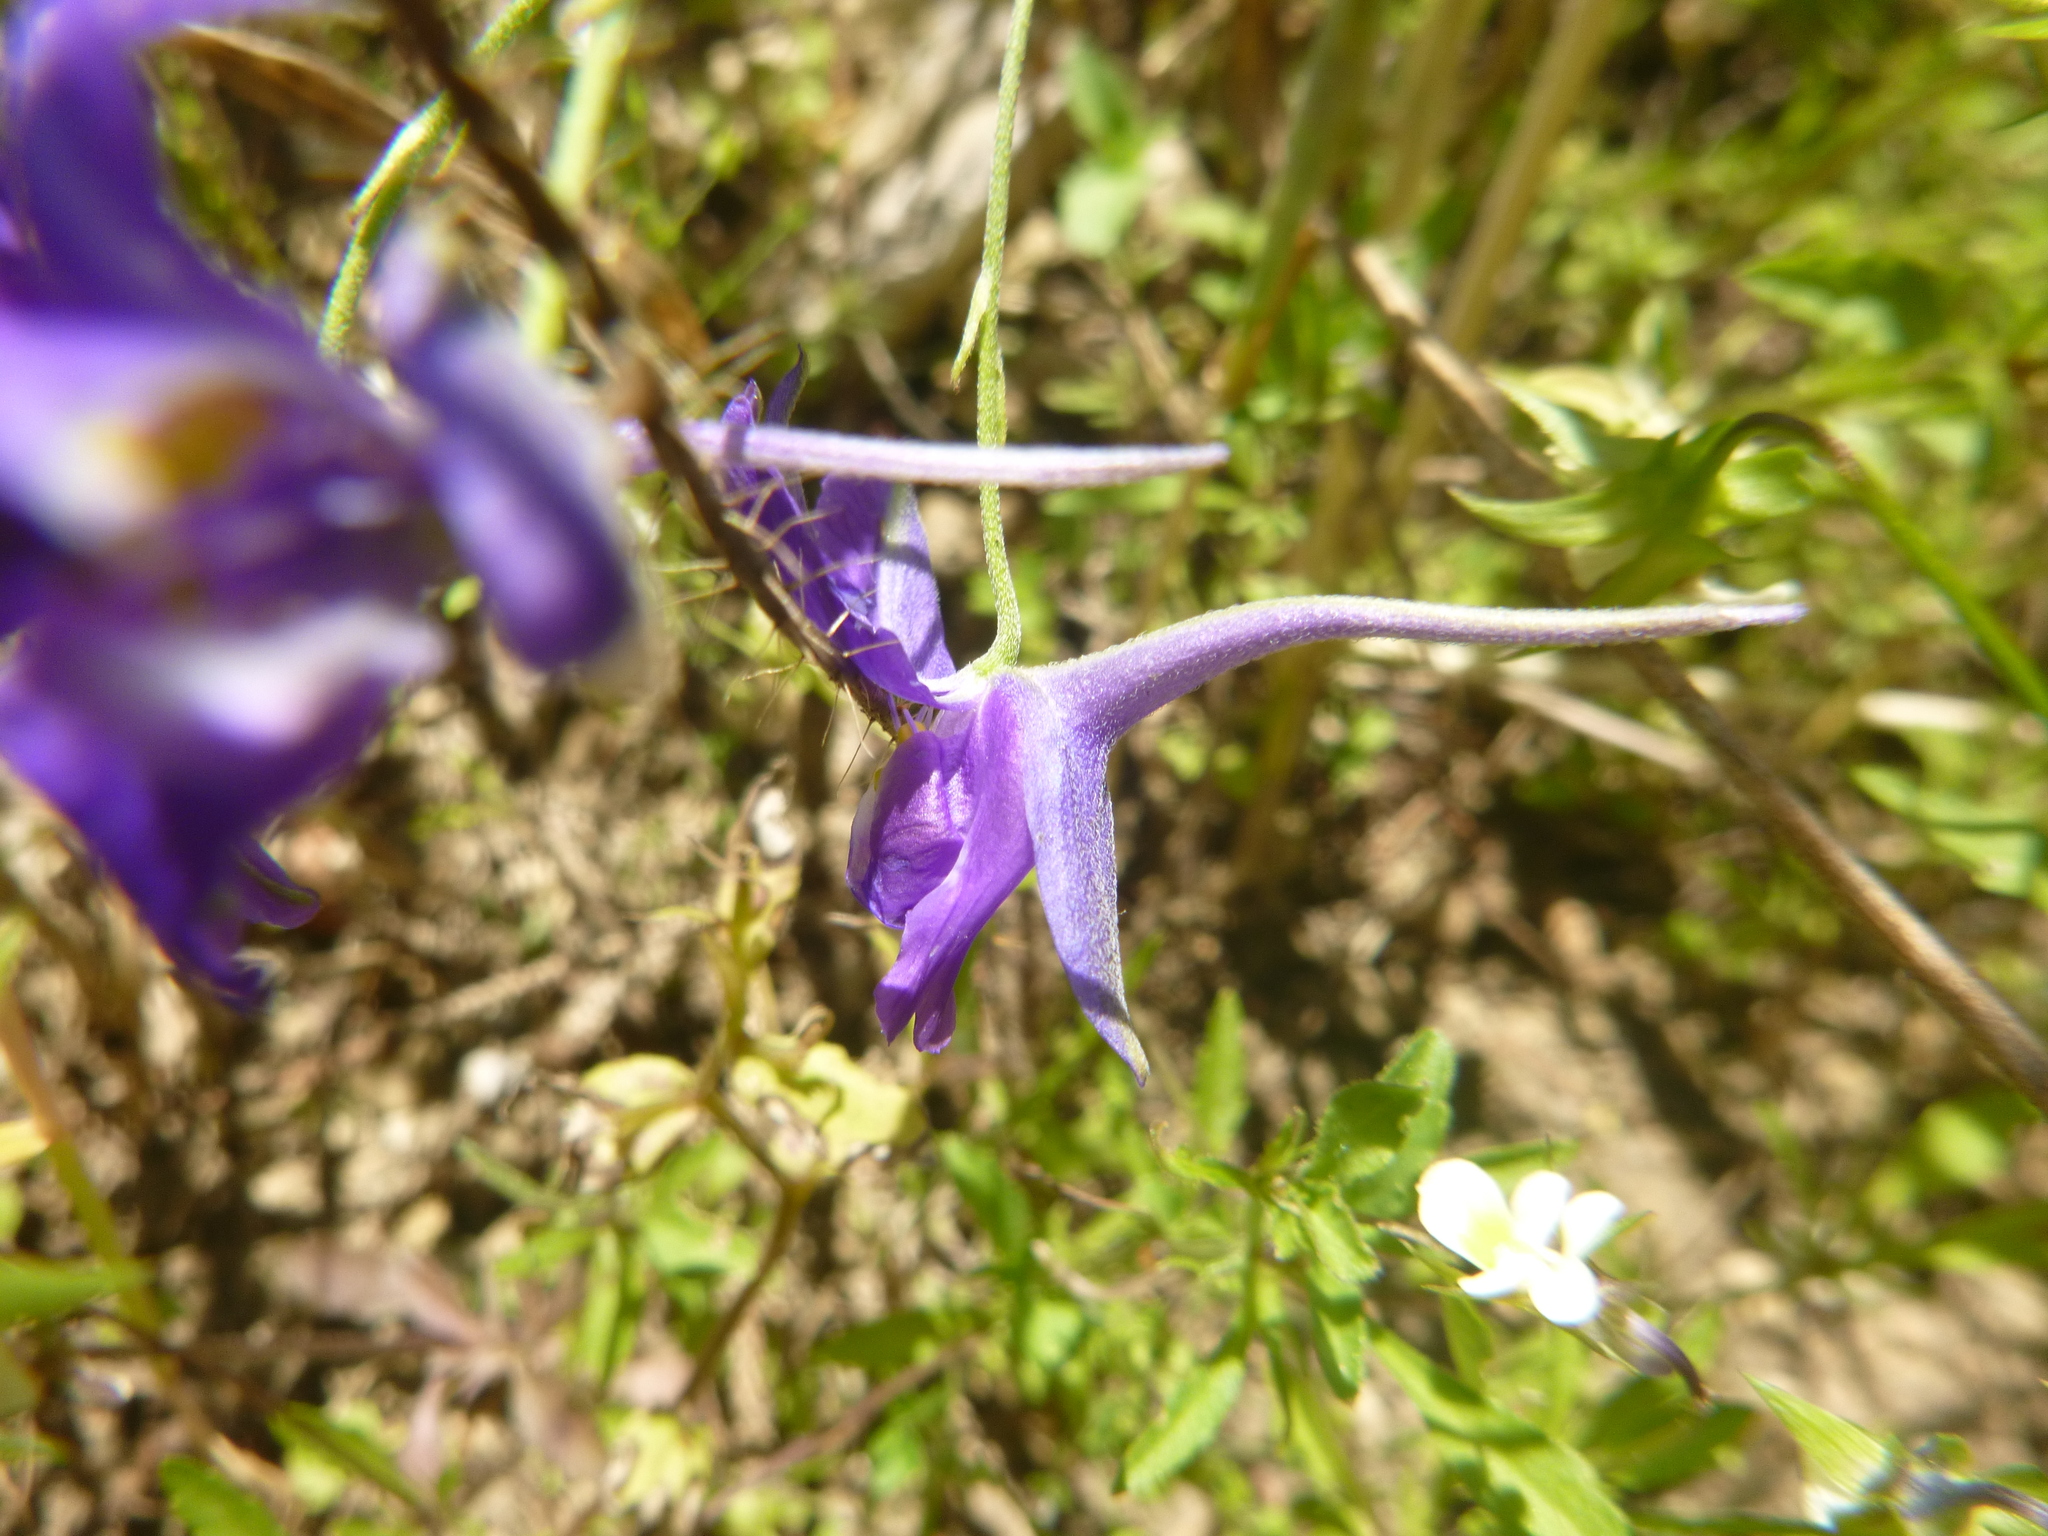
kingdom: Plantae
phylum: Tracheophyta
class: Magnoliopsida
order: Ranunculales
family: Ranunculaceae
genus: Delphinium
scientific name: Delphinium consolida
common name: Branching larkspur
